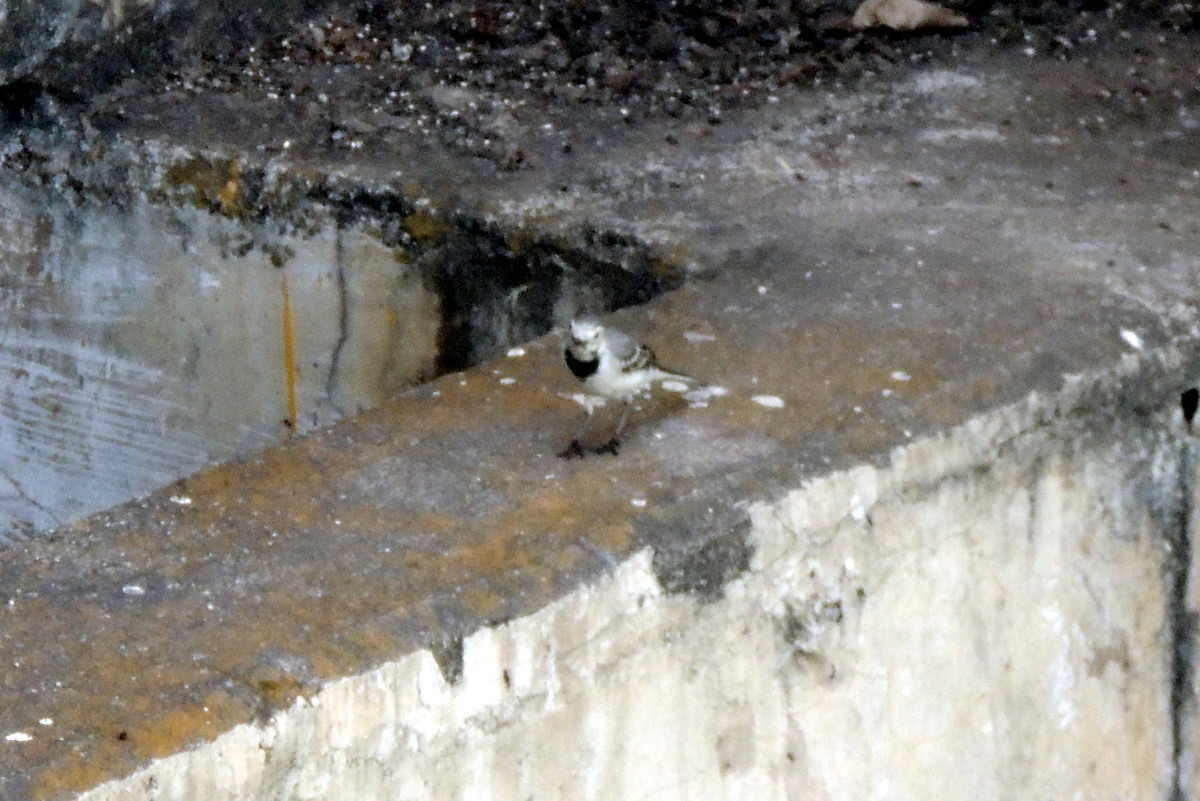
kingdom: Animalia
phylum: Chordata
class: Aves
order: Passeriformes
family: Motacillidae
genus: Motacilla
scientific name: Motacilla alba
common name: White wagtail
